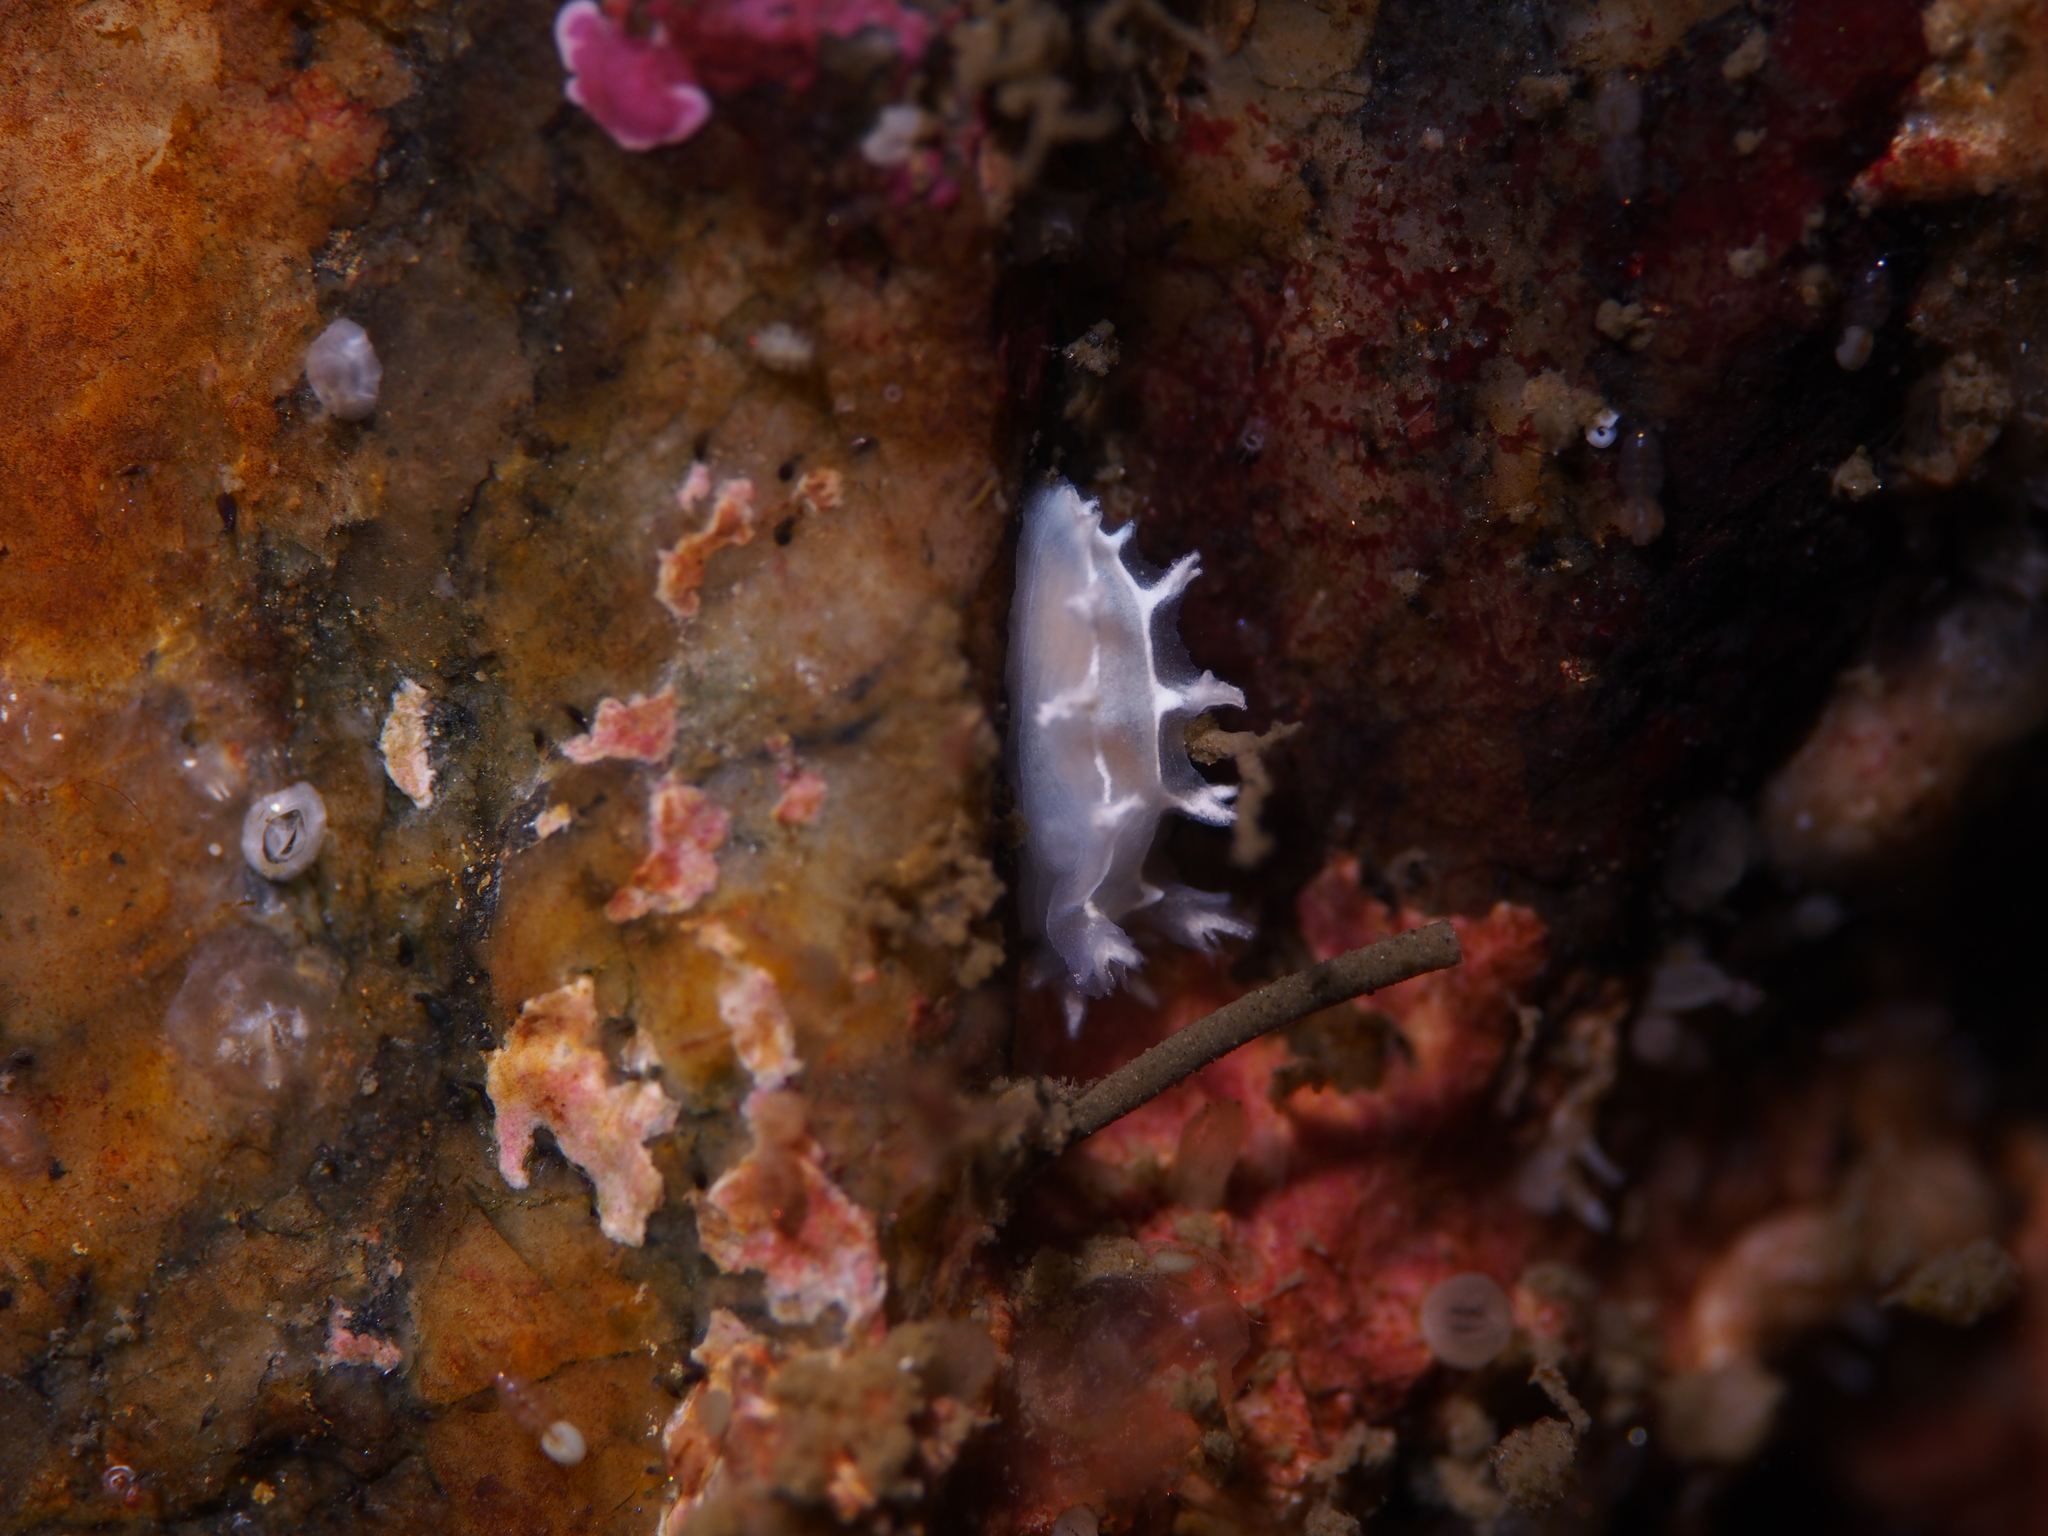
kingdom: Animalia
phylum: Mollusca
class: Gastropoda
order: Nudibranchia
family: Tritoniidae
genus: Duvaucelia
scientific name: Duvaucelia lineata
